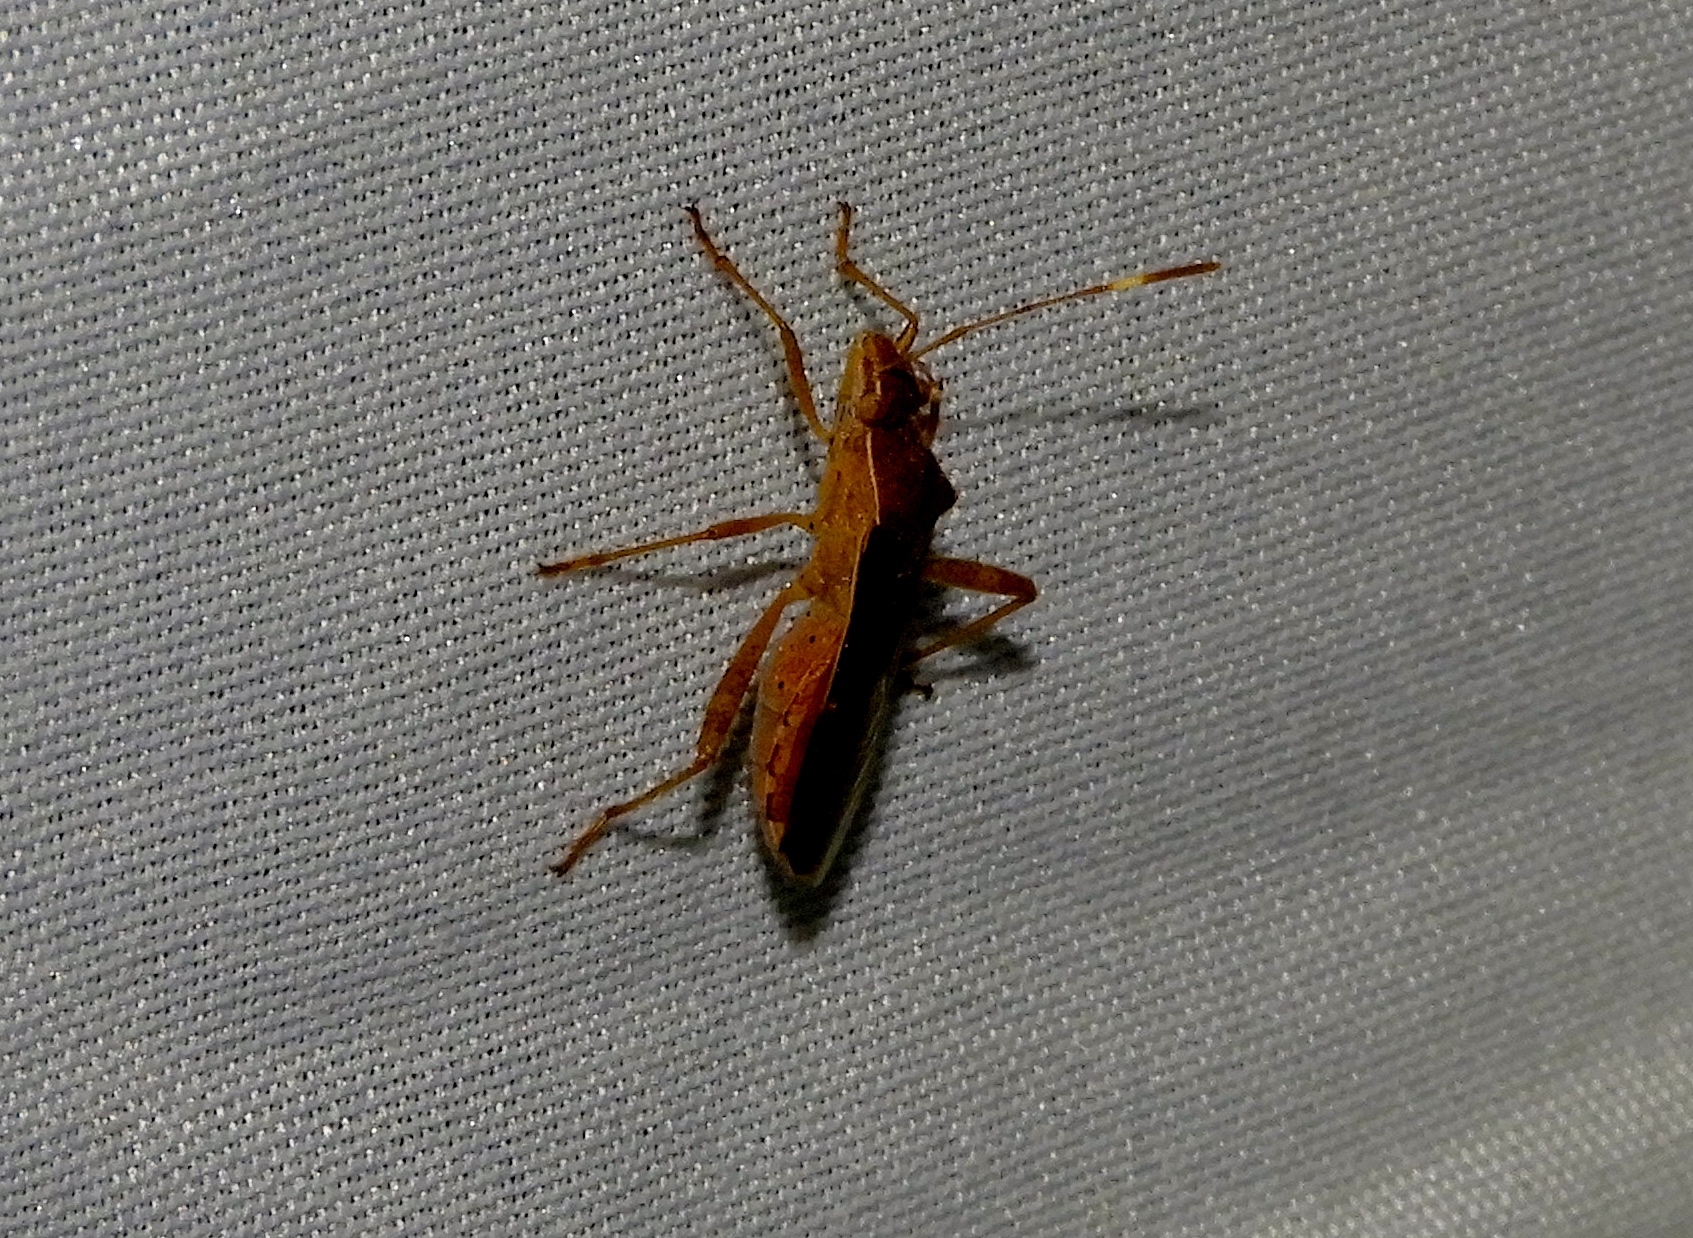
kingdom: Animalia
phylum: Arthropoda
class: Insecta
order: Hemiptera
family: Alydidae
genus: Burtinus
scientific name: Burtinus notatipennis
